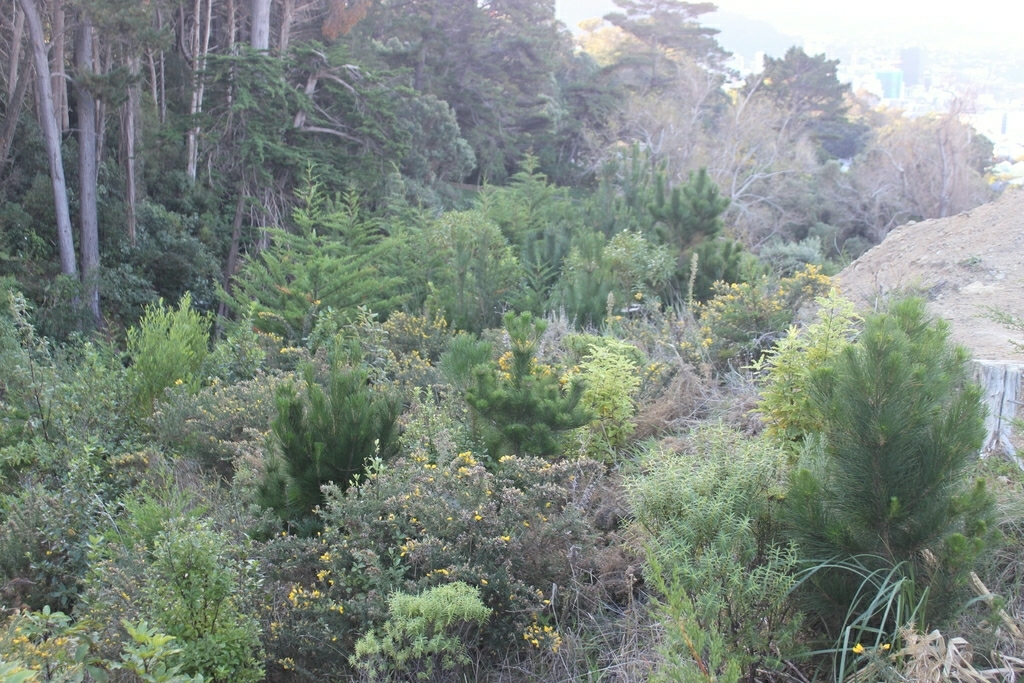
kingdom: Plantae
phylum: Tracheophyta
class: Magnoliopsida
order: Fabales
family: Fabaceae
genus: Ulex
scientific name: Ulex europaeus
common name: Common gorse
